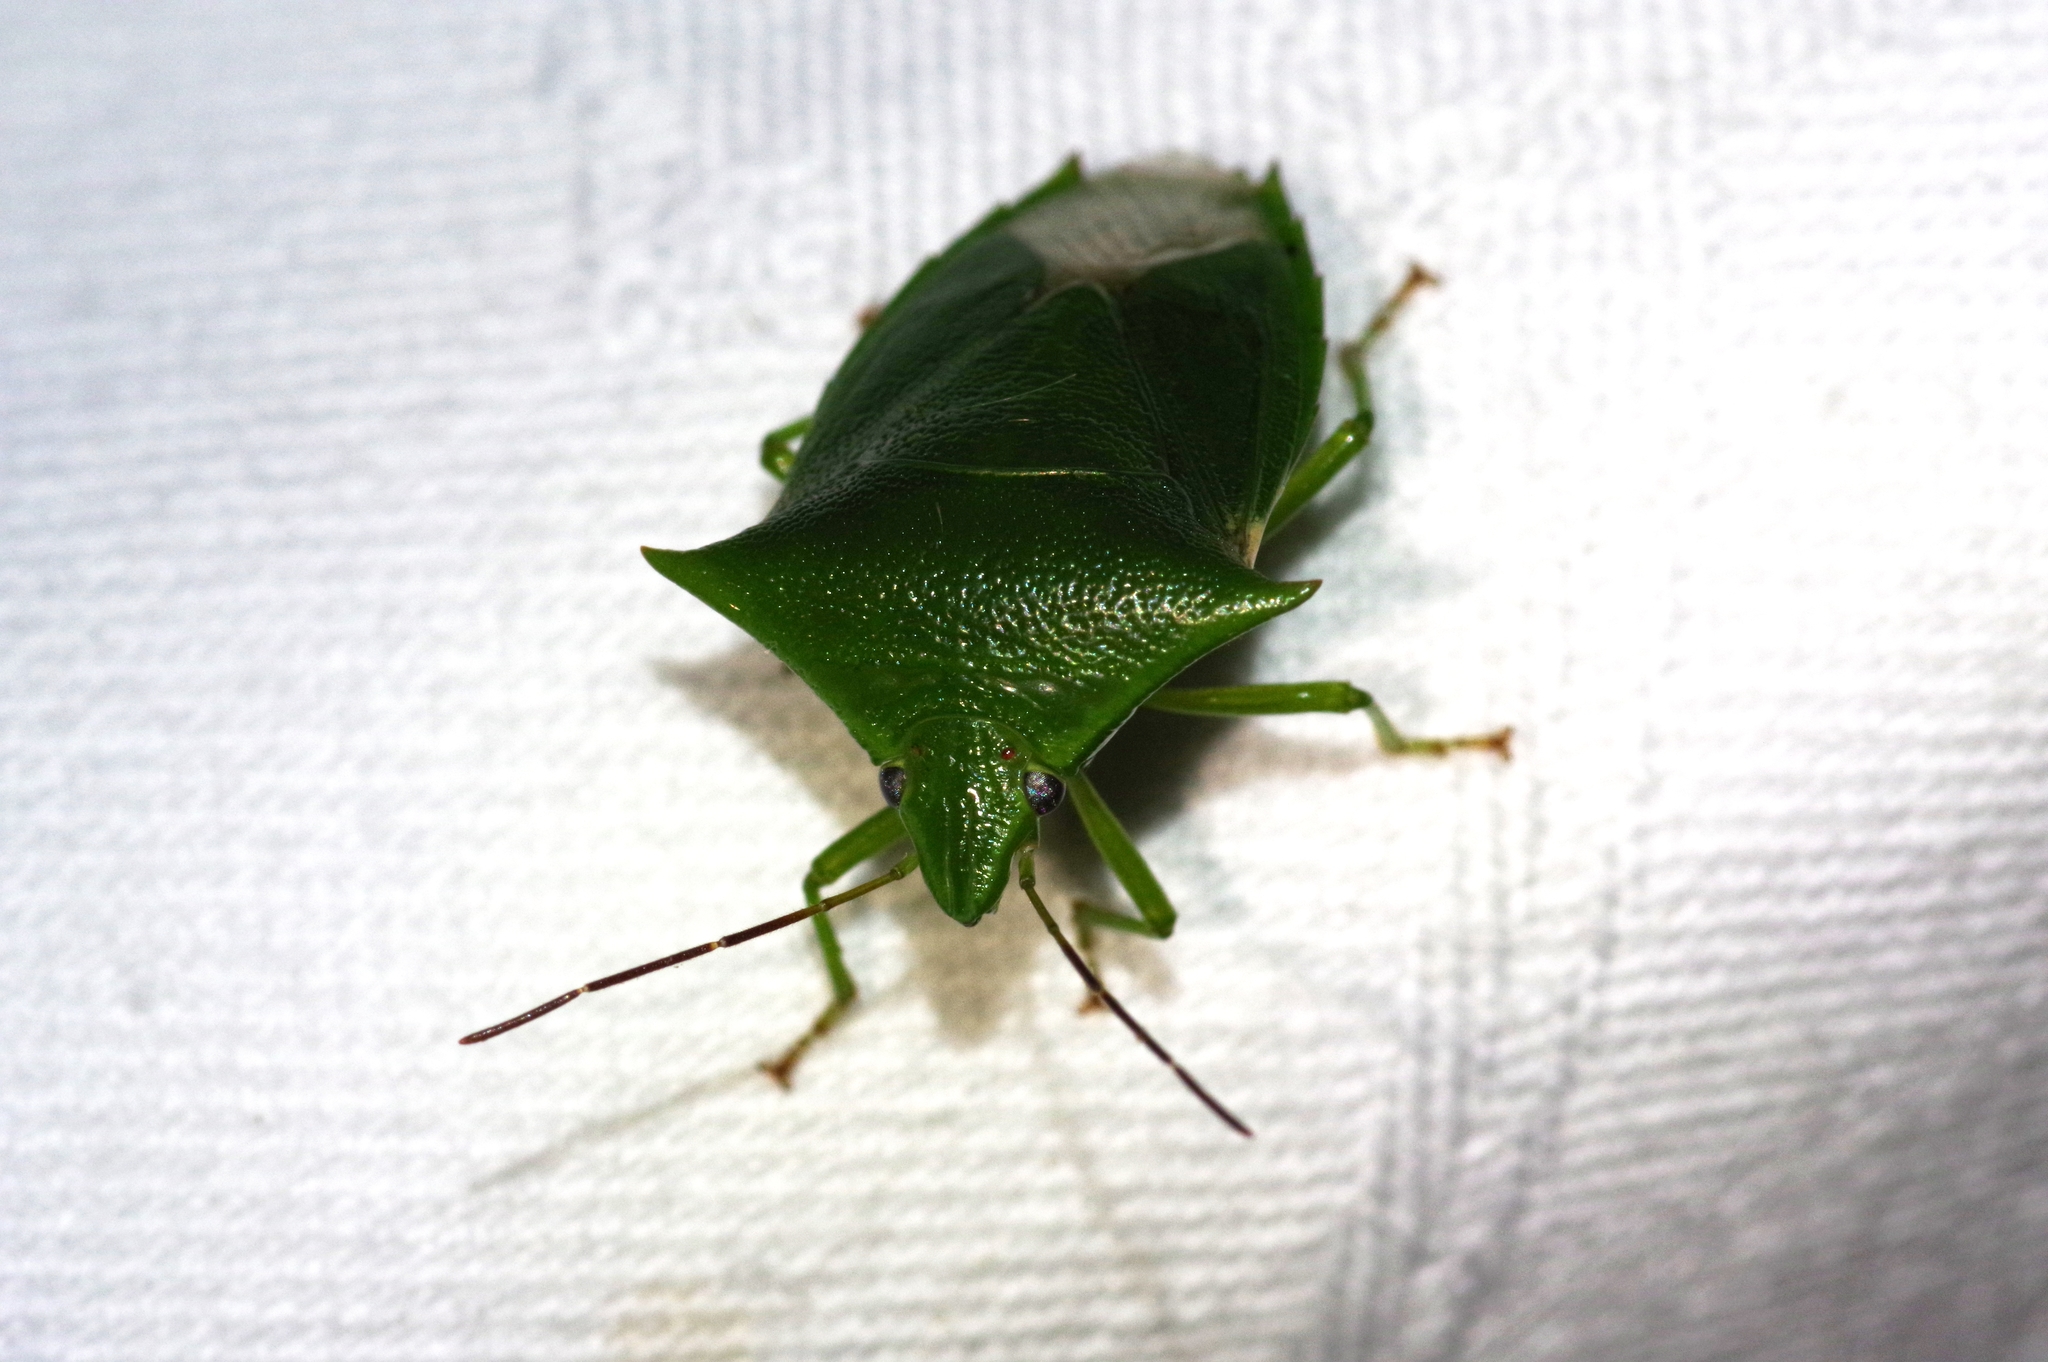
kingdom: Animalia
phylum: Arthropoda
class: Insecta
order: Hemiptera
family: Pentatomidae
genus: Vitellus
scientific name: Vitellus
